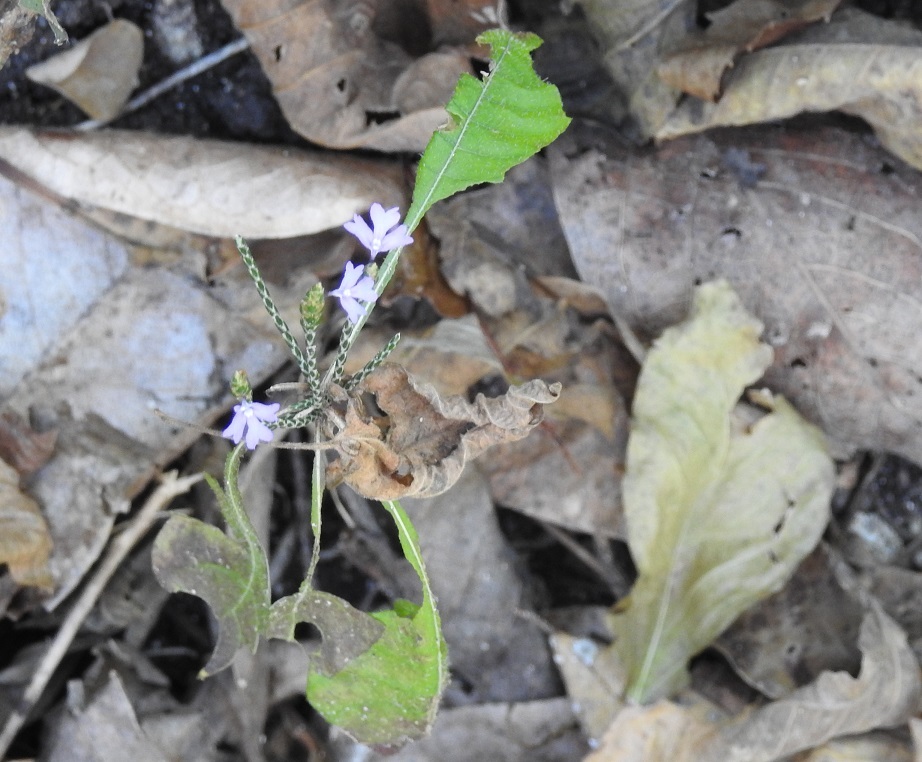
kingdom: Plantae
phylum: Tracheophyta
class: Magnoliopsida
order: Lamiales
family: Acanthaceae
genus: Elytraria
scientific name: Elytraria imbricata
